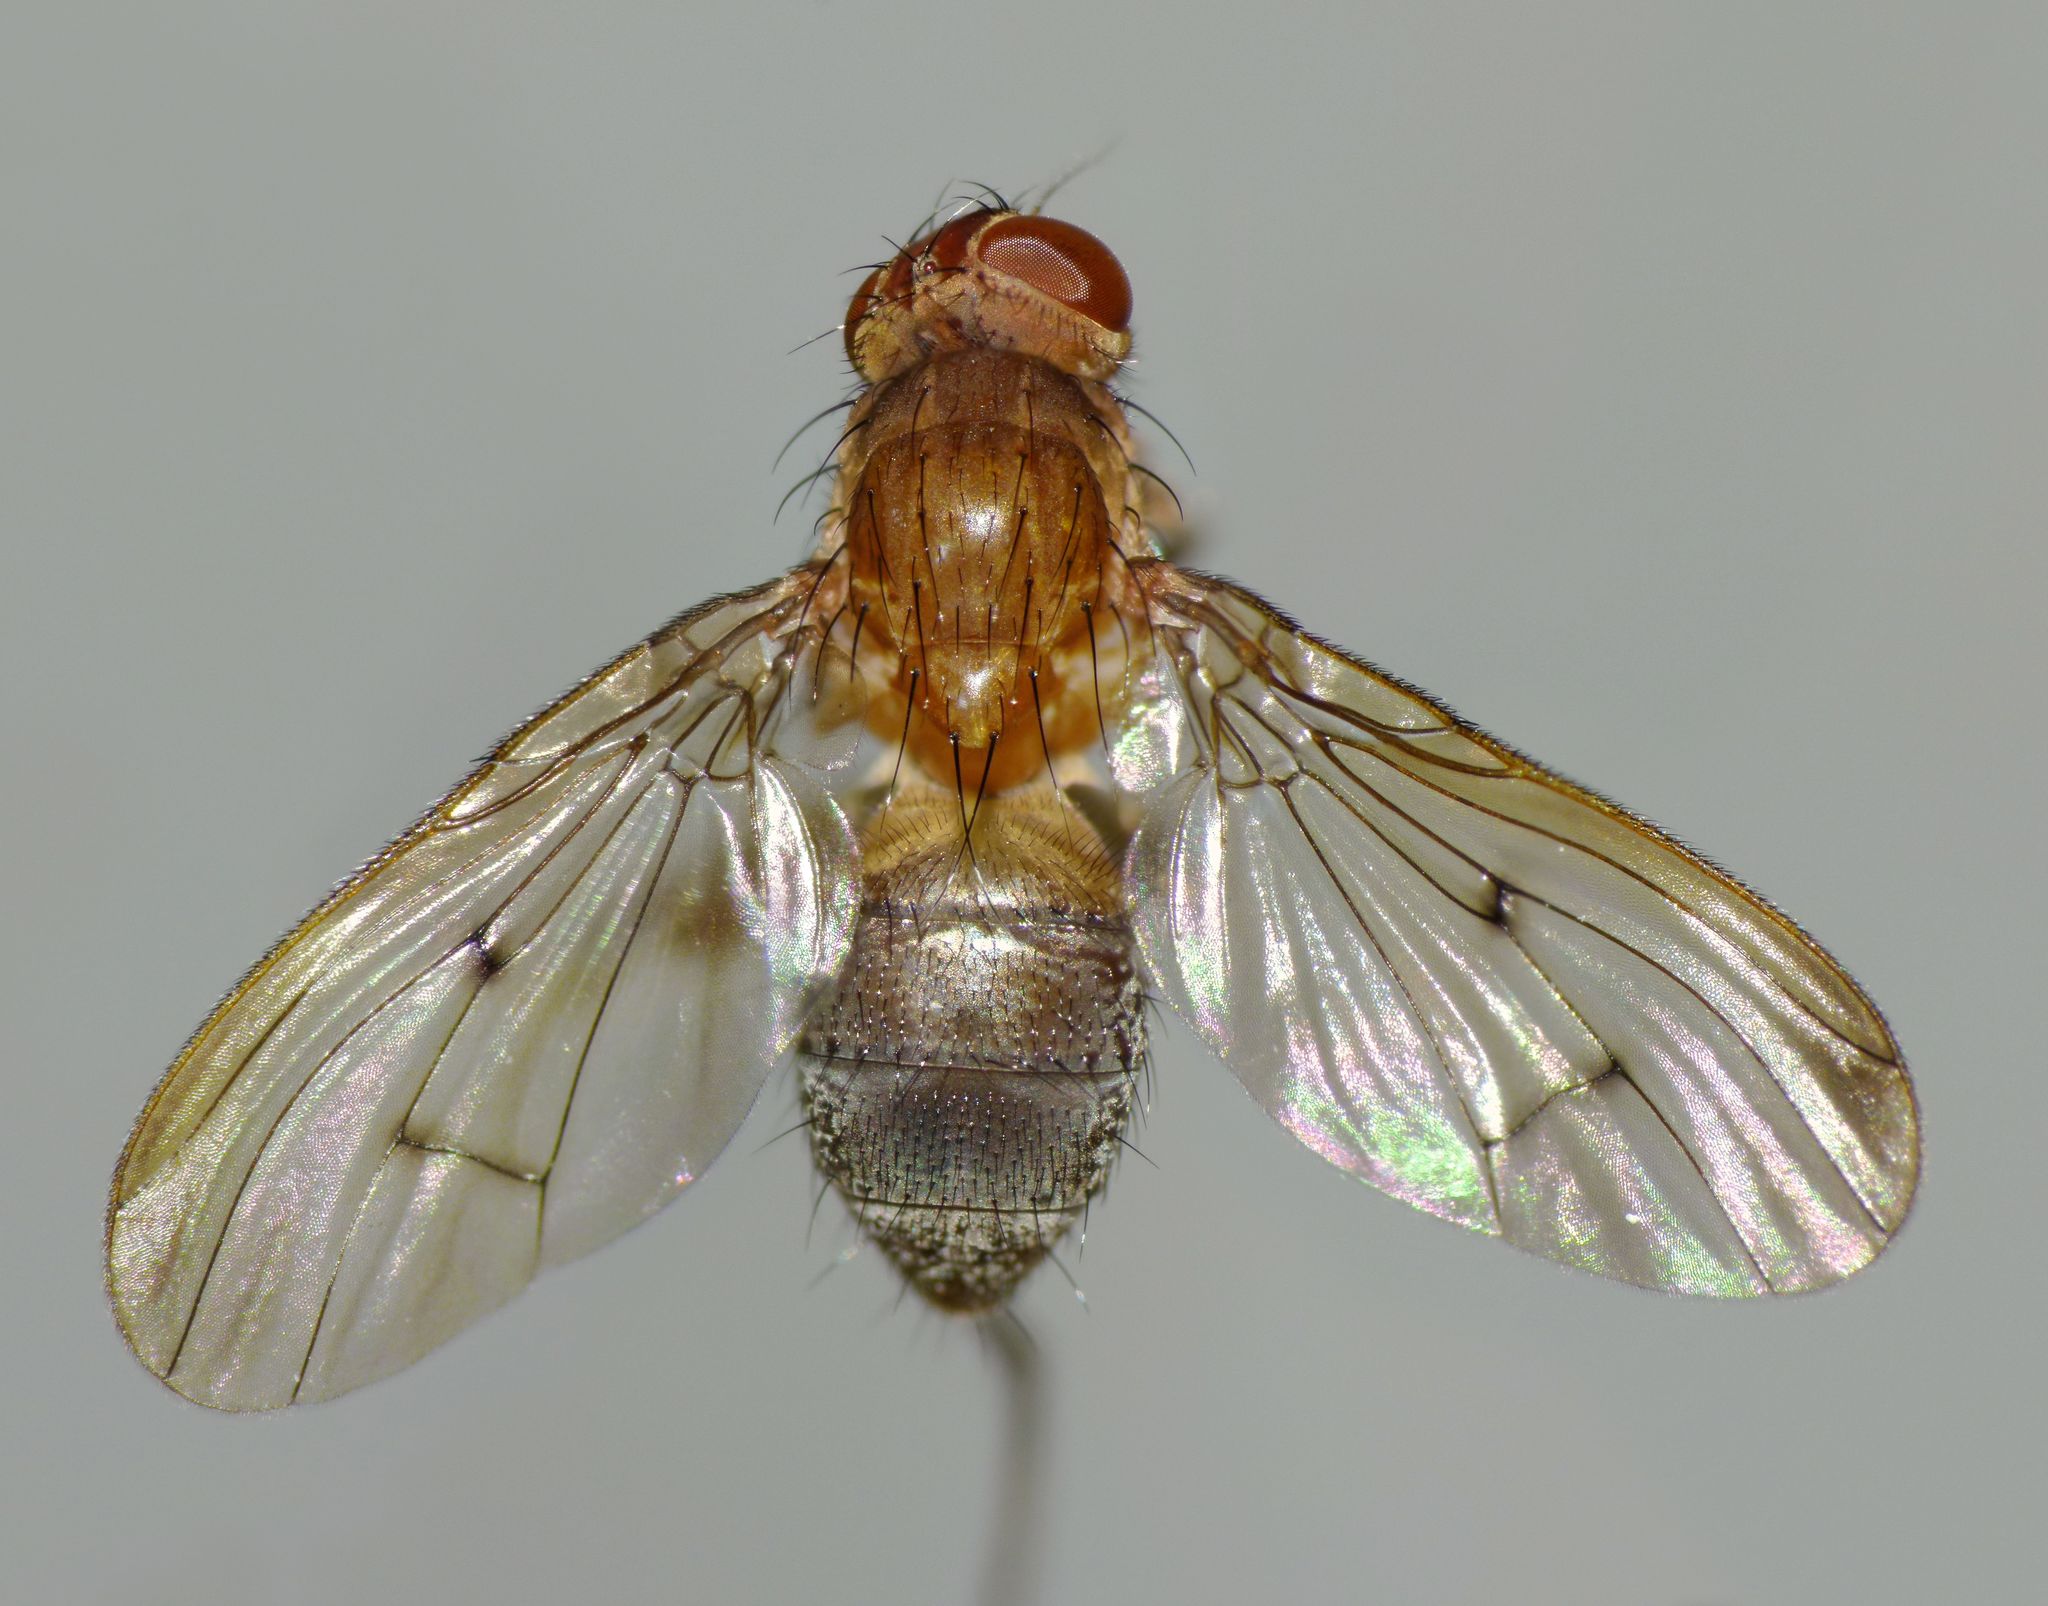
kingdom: Animalia
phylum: Arthropoda
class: Insecta
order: Diptera
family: Muscidae
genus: Idiohelina
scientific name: Idiohelina nubeculosa
